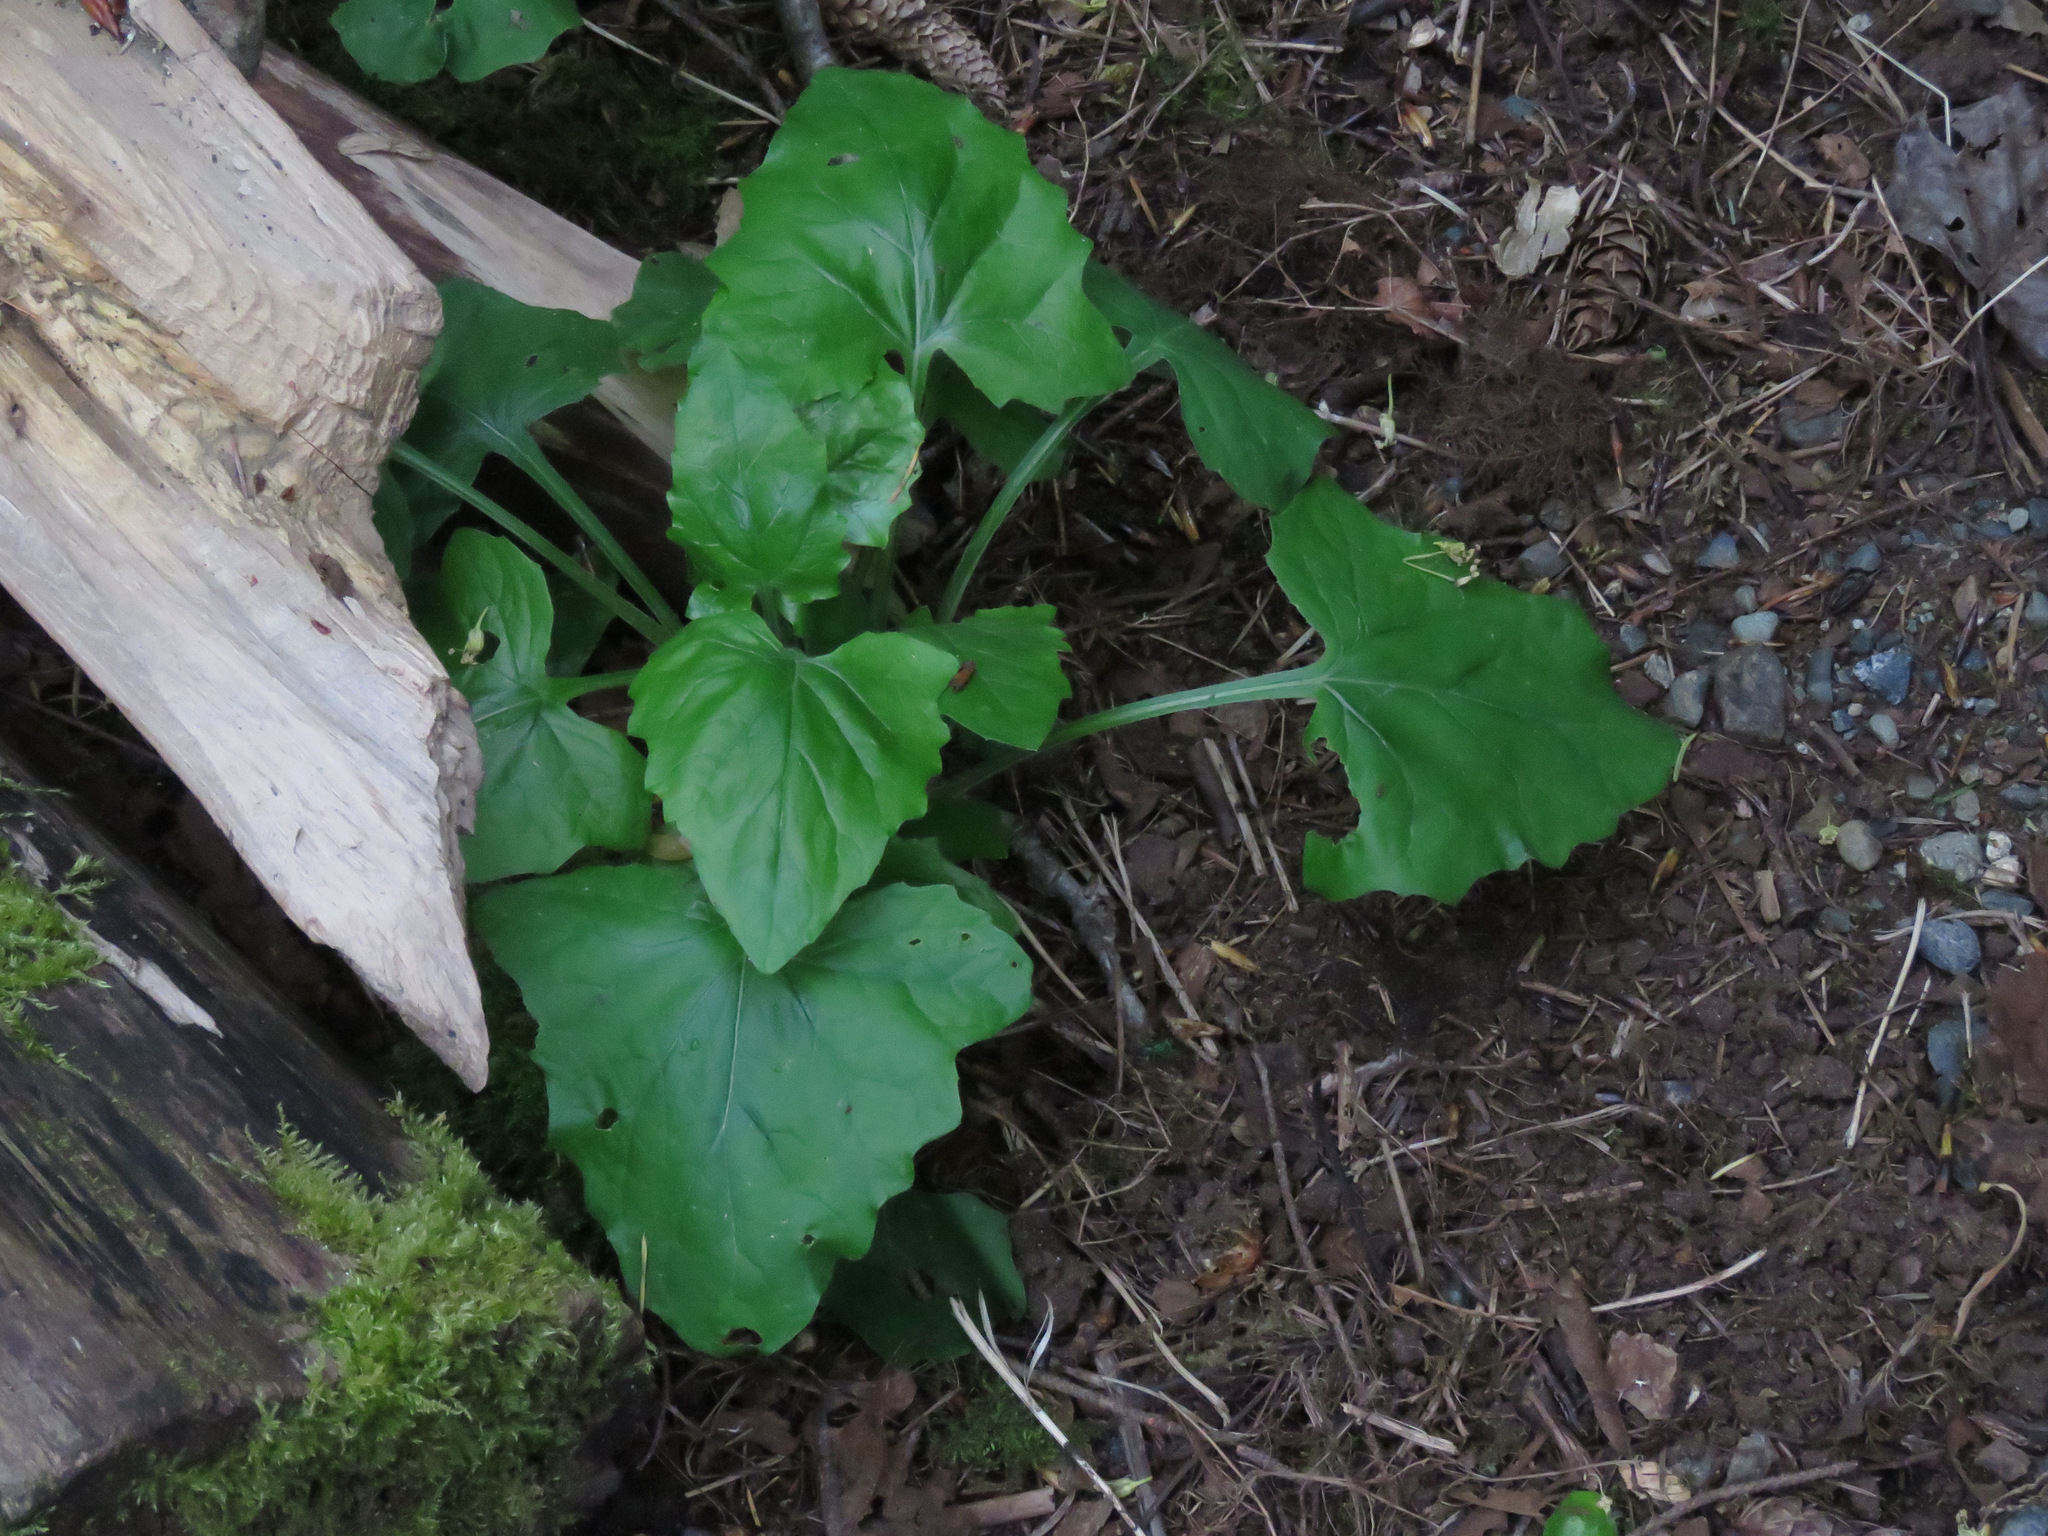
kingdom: Plantae
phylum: Tracheophyta
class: Magnoliopsida
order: Asterales
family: Asteraceae
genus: Adenocaulon
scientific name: Adenocaulon bicolor
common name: Trailplant
